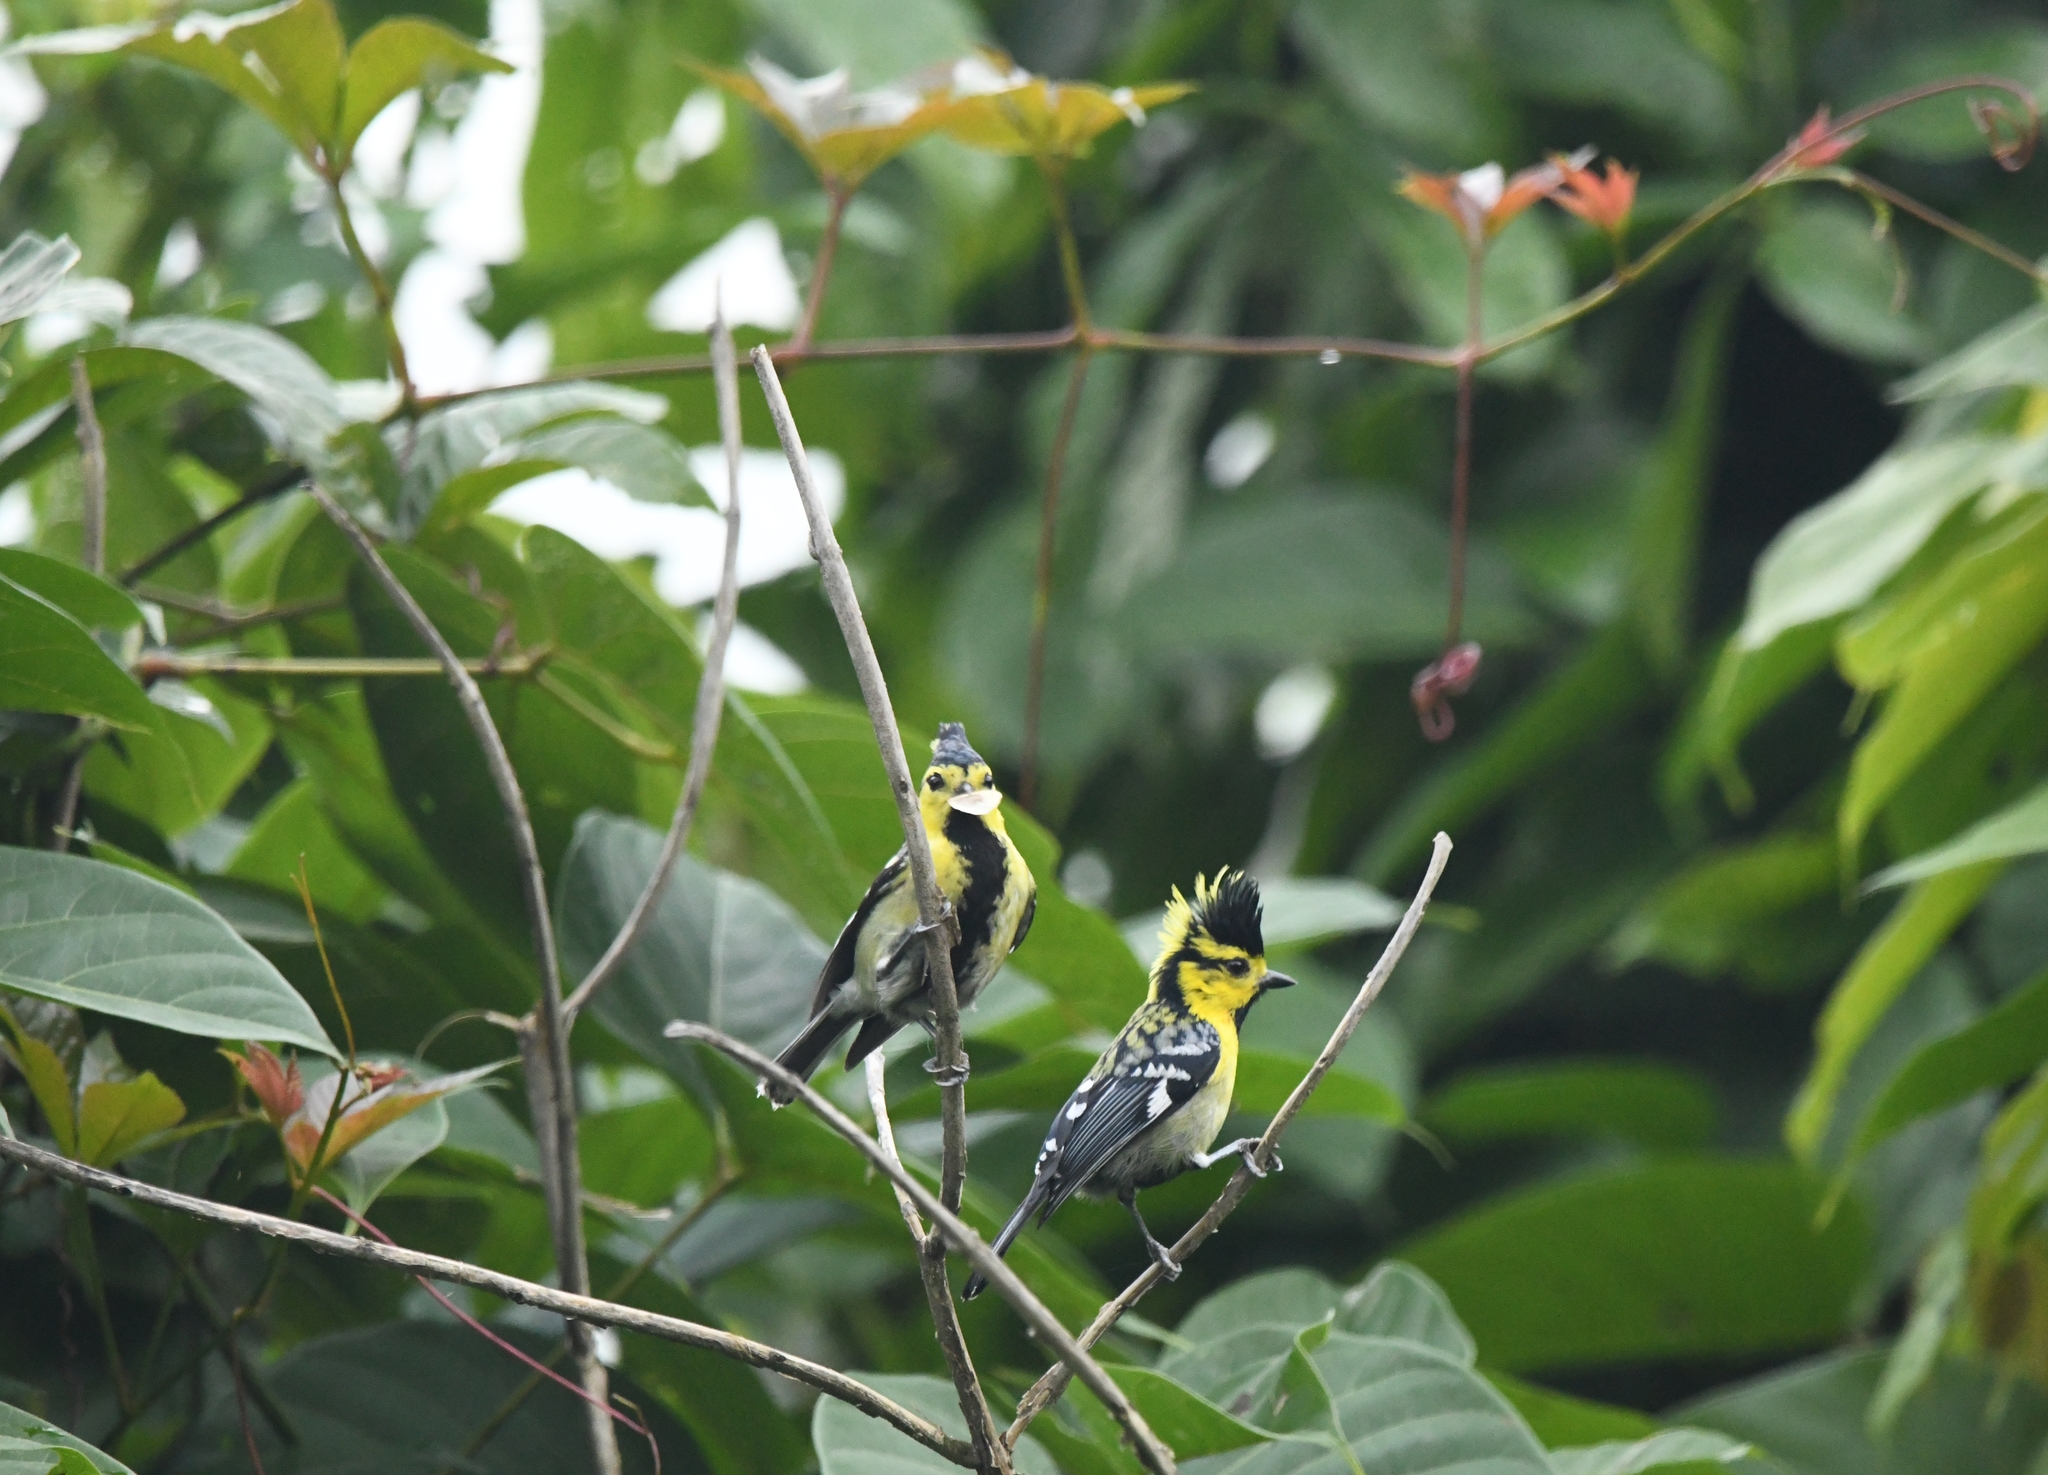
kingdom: Animalia
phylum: Chordata
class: Aves
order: Passeriformes
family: Paridae
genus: Parus
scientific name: Parus spilonotus
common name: Yellow-cheeked tit
